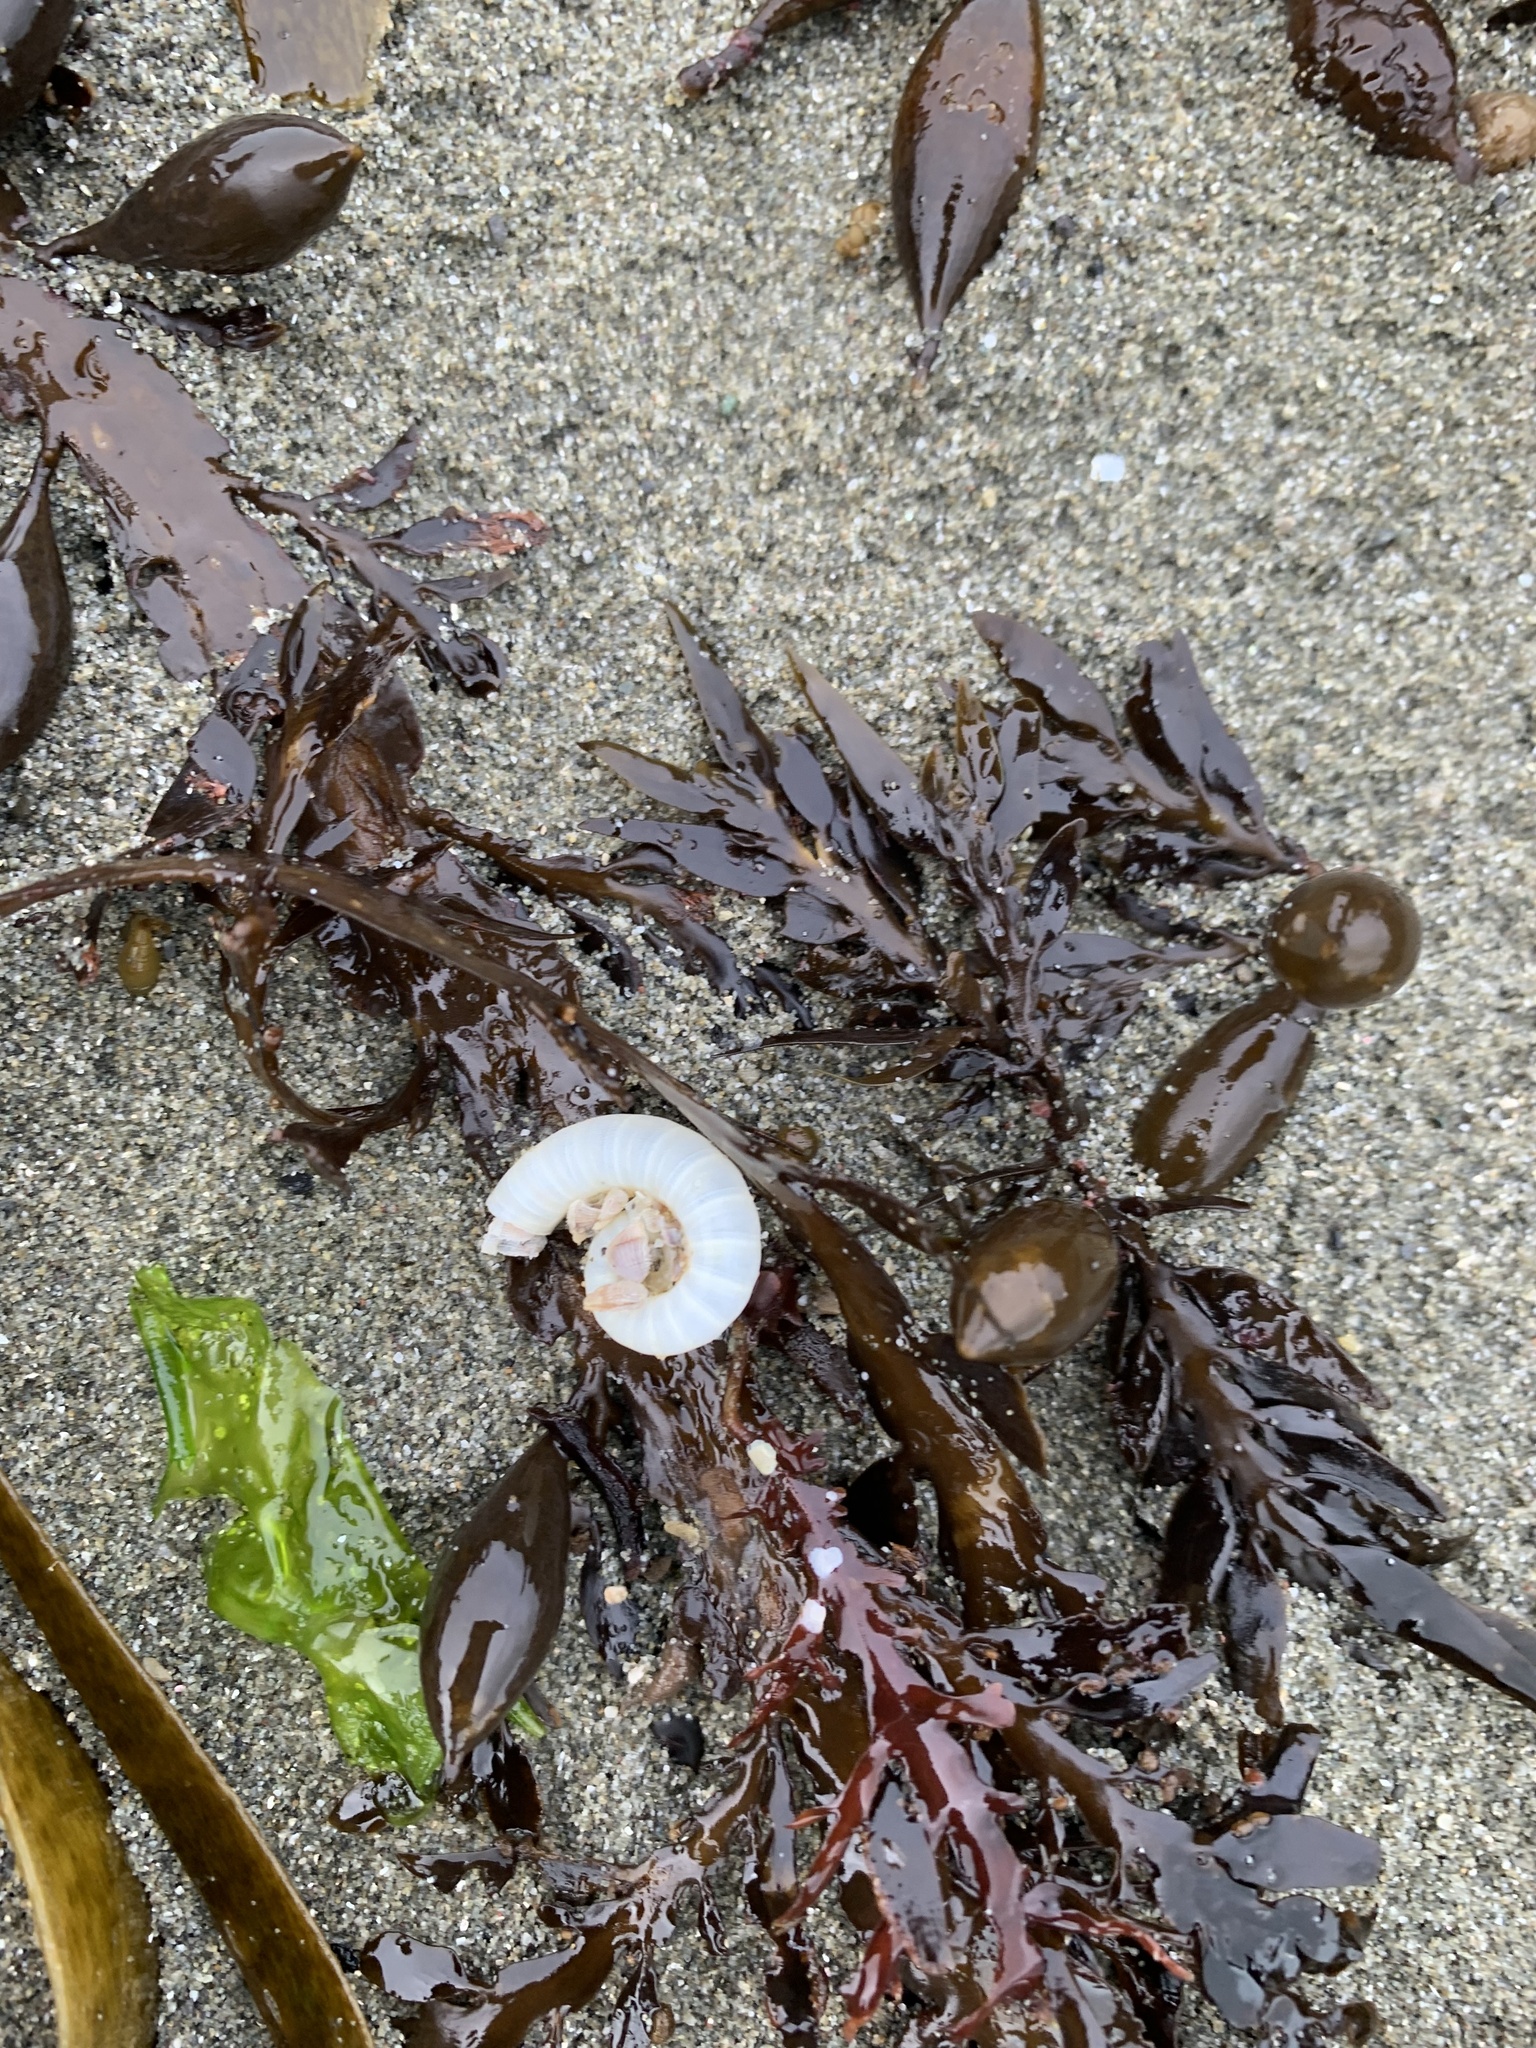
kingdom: Animalia
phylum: Mollusca
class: Cephalopoda
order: Spirulida
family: Spirulidae
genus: Spirula
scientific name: Spirula spirula
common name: Ram's horn squid
